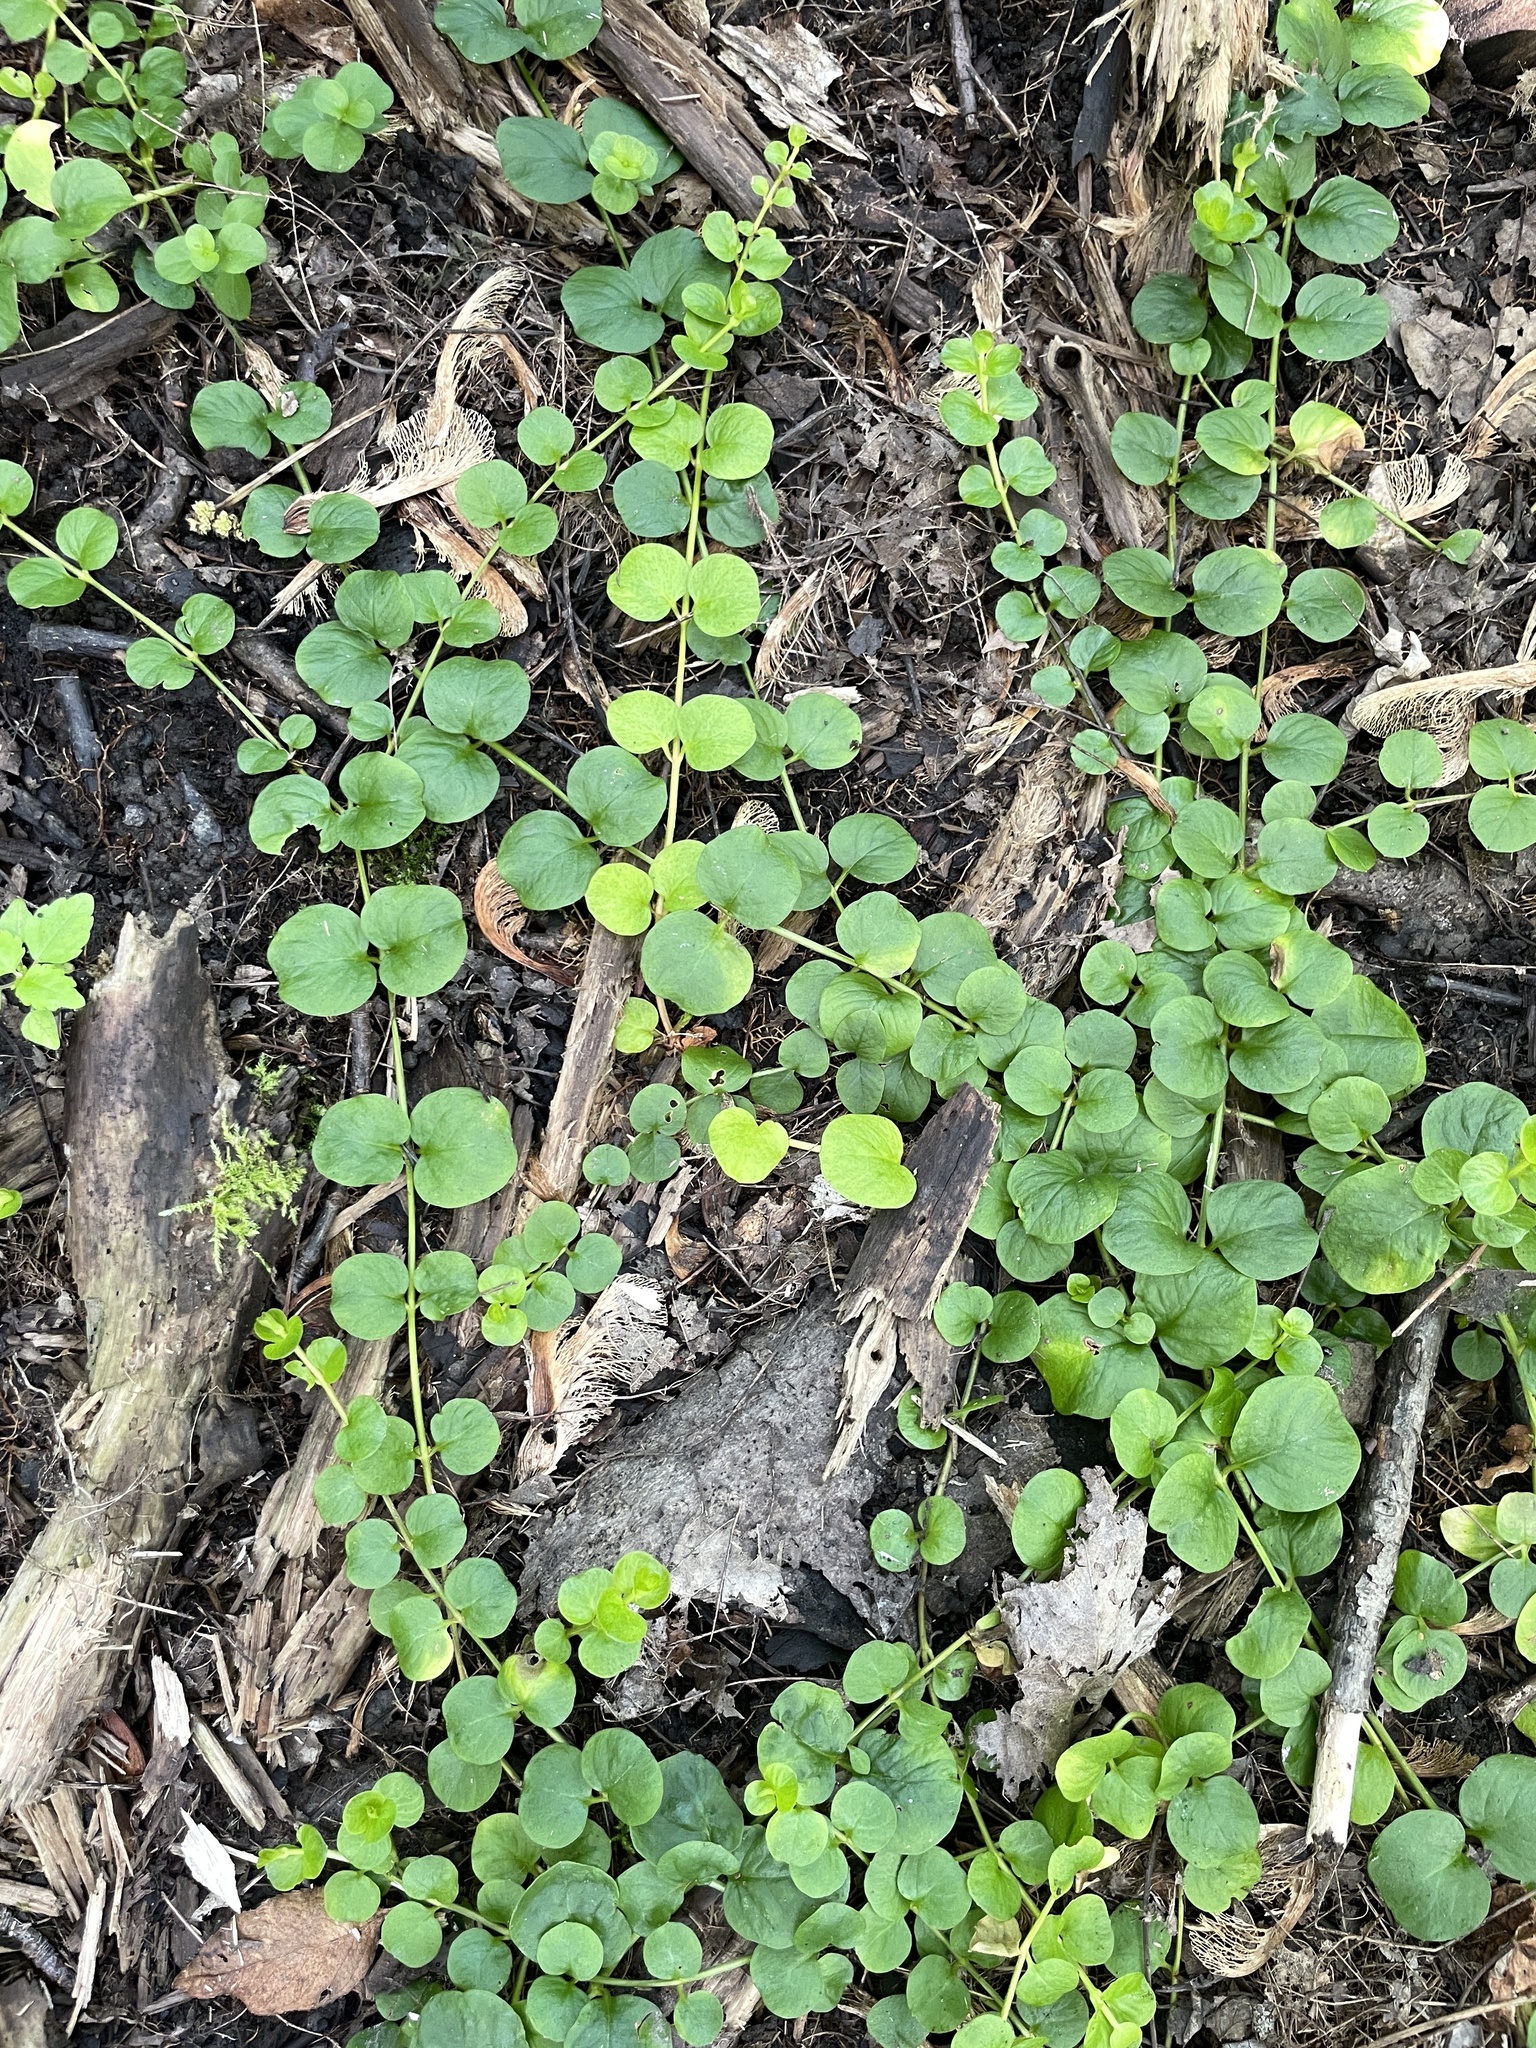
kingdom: Plantae
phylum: Tracheophyta
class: Magnoliopsida
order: Ericales
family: Primulaceae
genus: Lysimachia
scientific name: Lysimachia nummularia
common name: Moneywort
